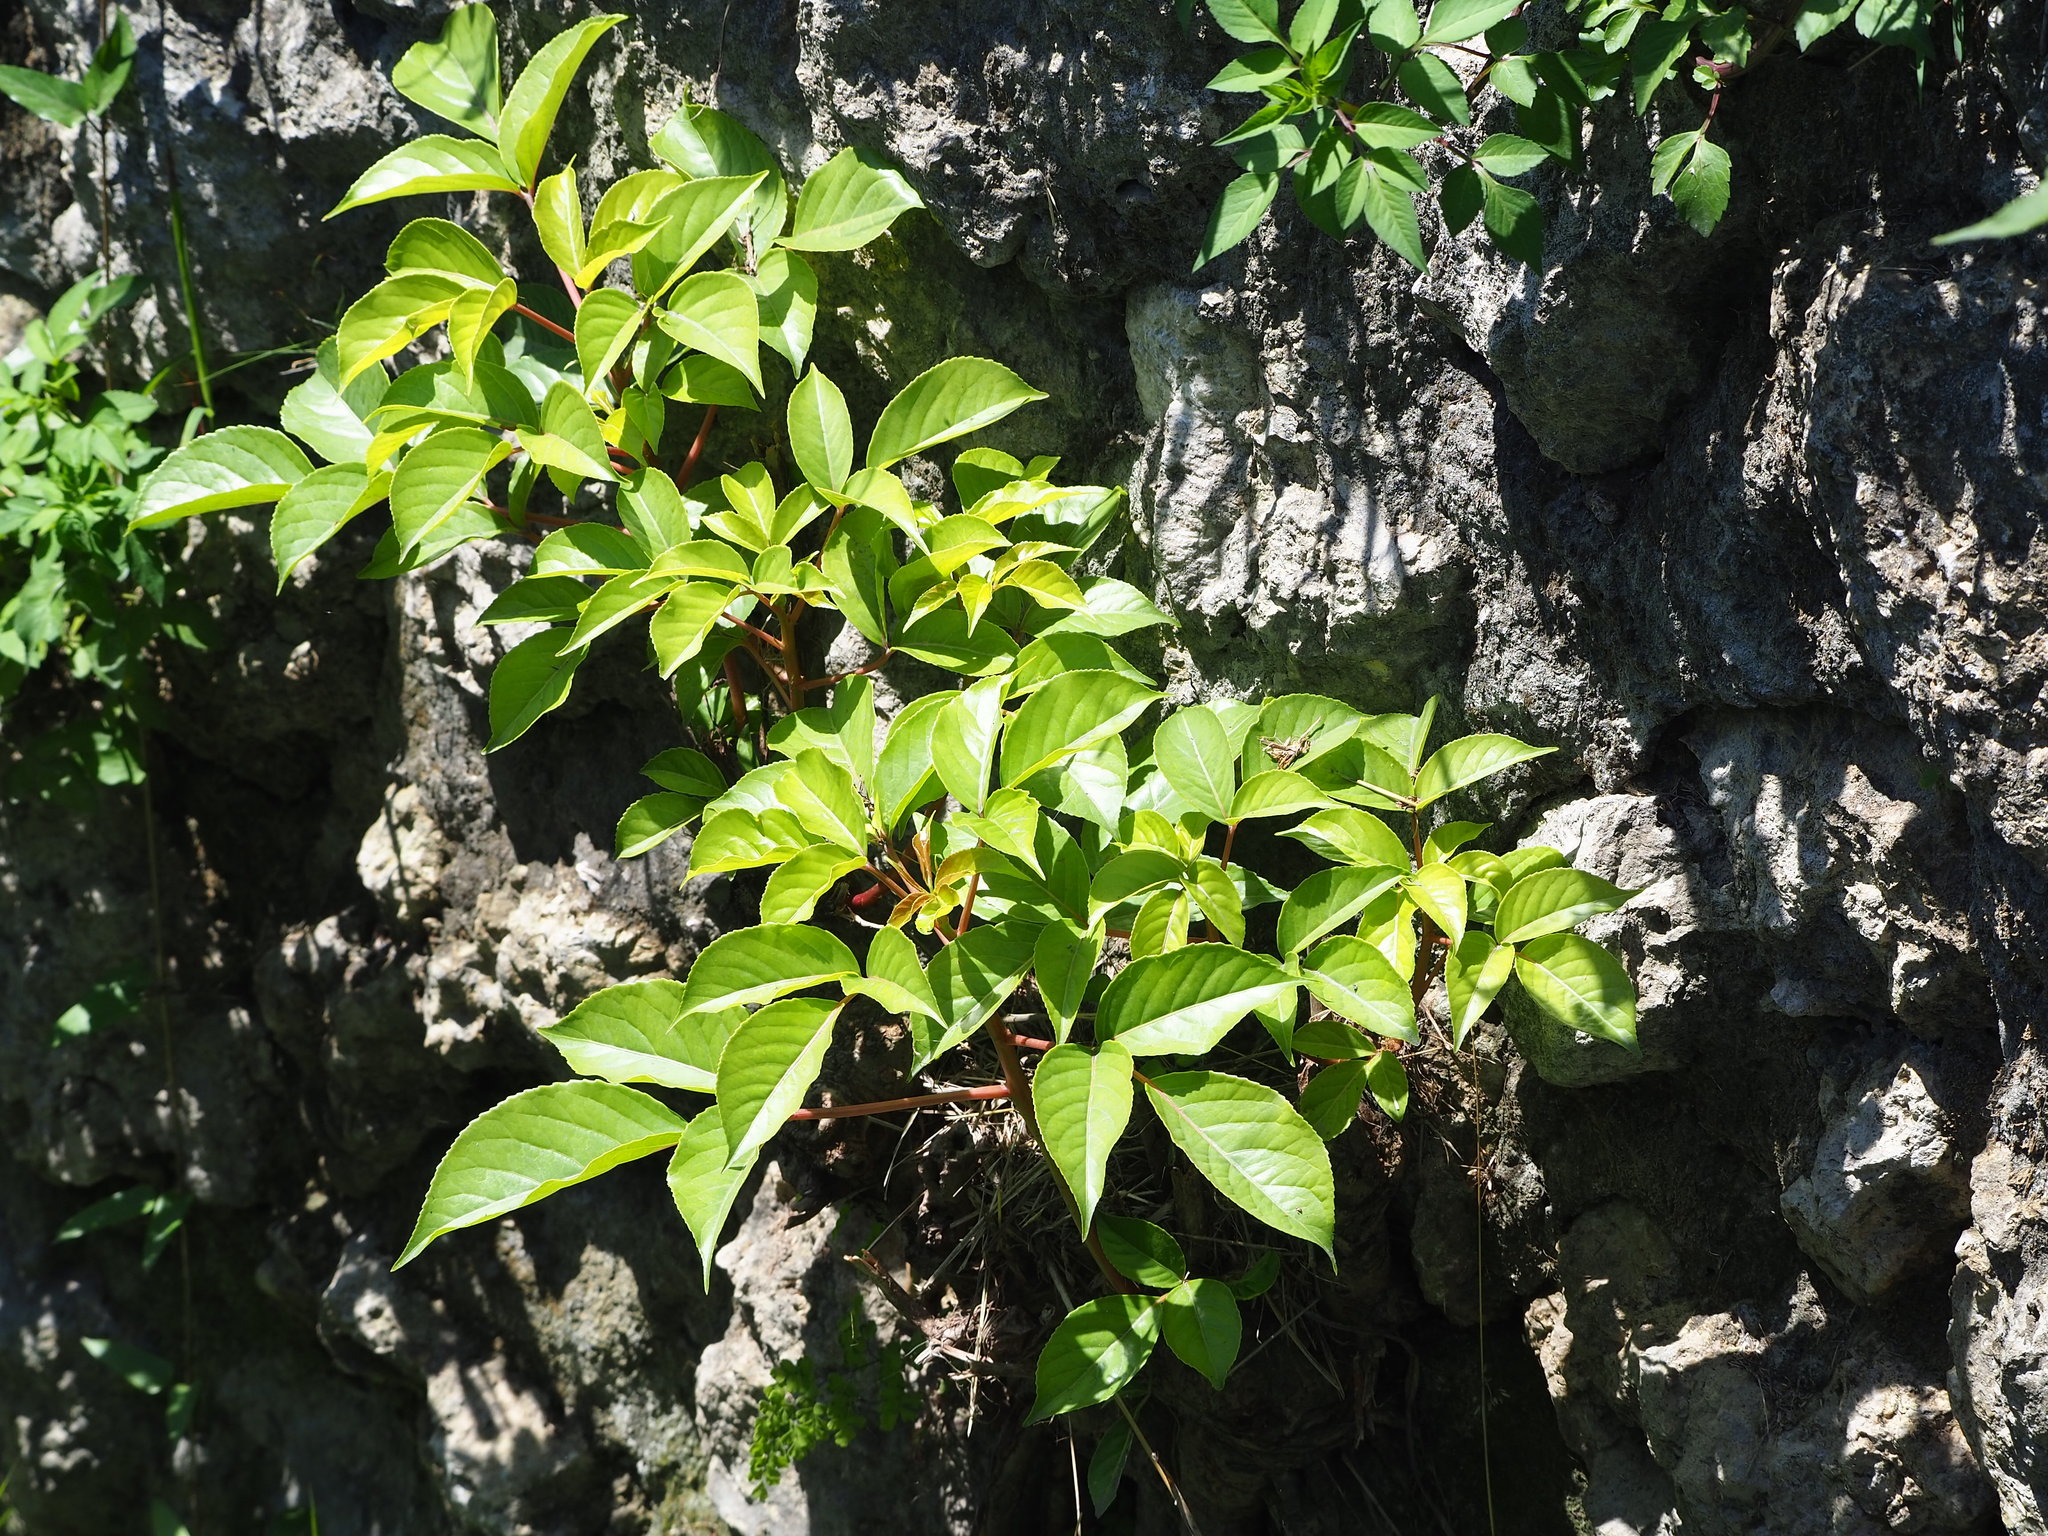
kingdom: Plantae
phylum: Tracheophyta
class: Magnoliopsida
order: Malpighiales
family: Phyllanthaceae
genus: Bischofia
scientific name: Bischofia javanica
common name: Javanese bishopwood
